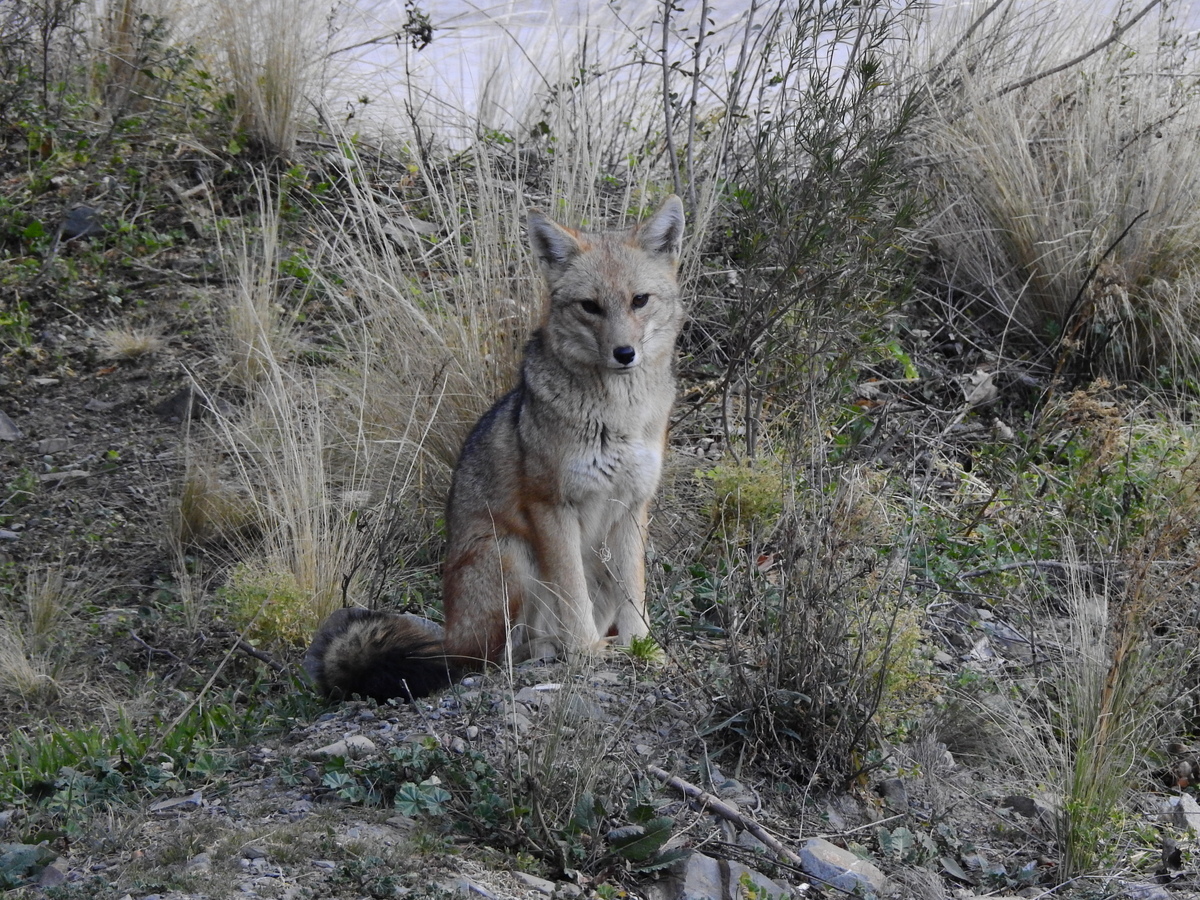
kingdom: Animalia
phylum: Chordata
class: Mammalia
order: Carnivora
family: Canidae
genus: Lycalopex
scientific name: Lycalopex culpaeus
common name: Culpeo
